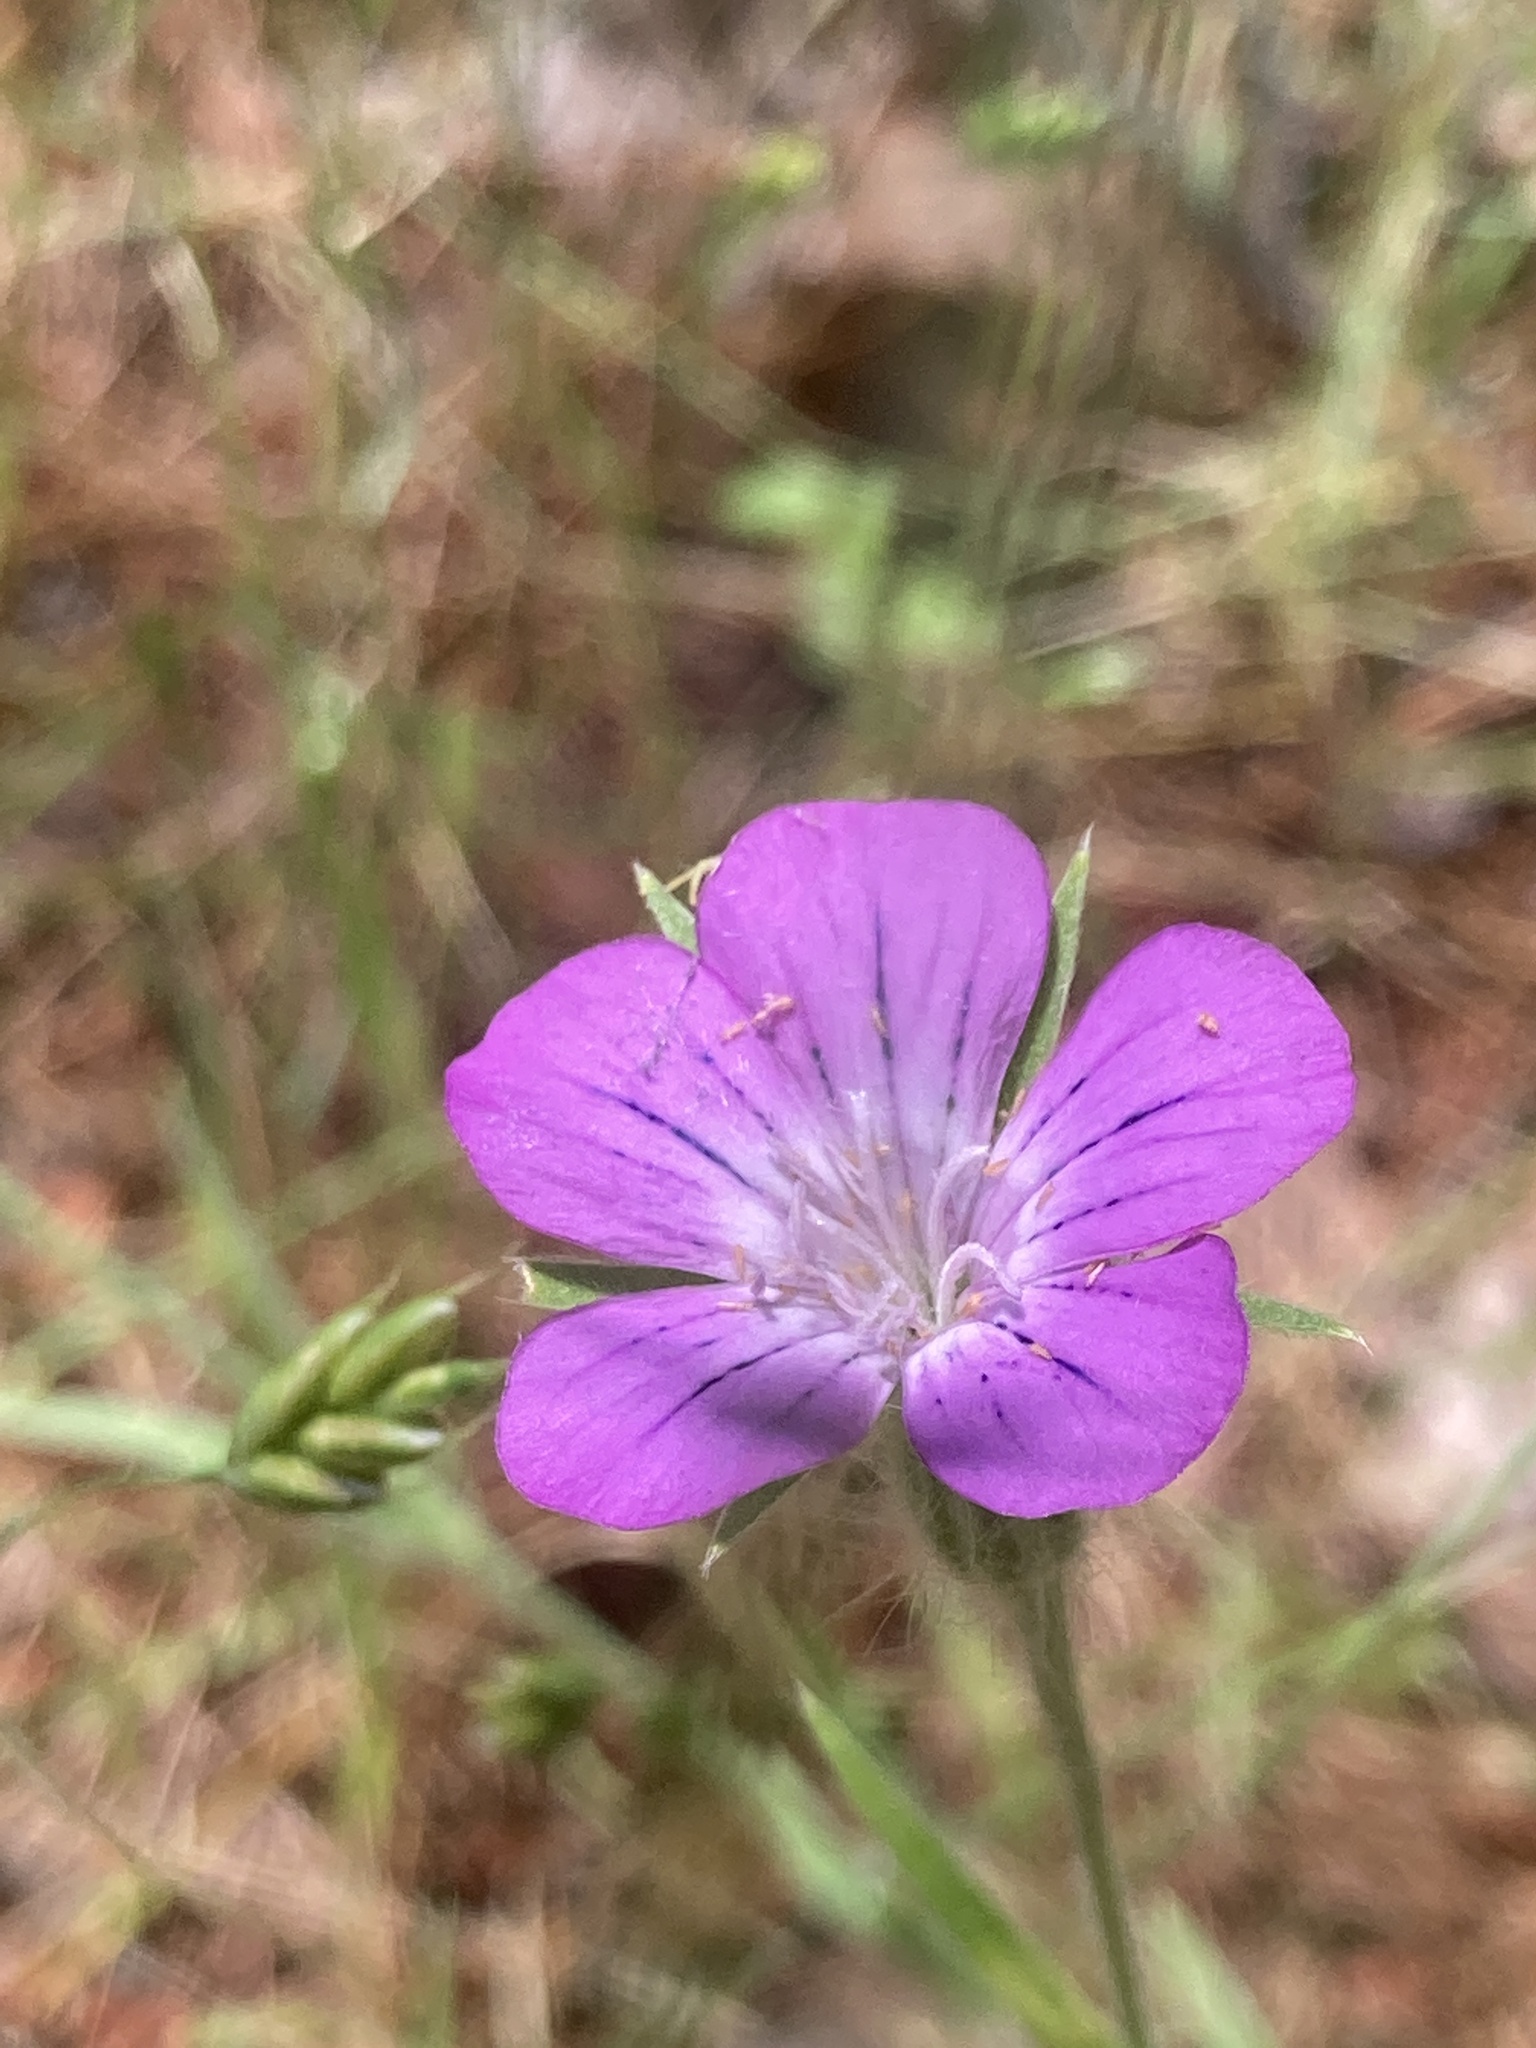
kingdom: Plantae
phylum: Tracheophyta
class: Magnoliopsida
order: Caryophyllales
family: Caryophyllaceae
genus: Agrostemma
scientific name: Agrostemma githago
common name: Common corncockle
